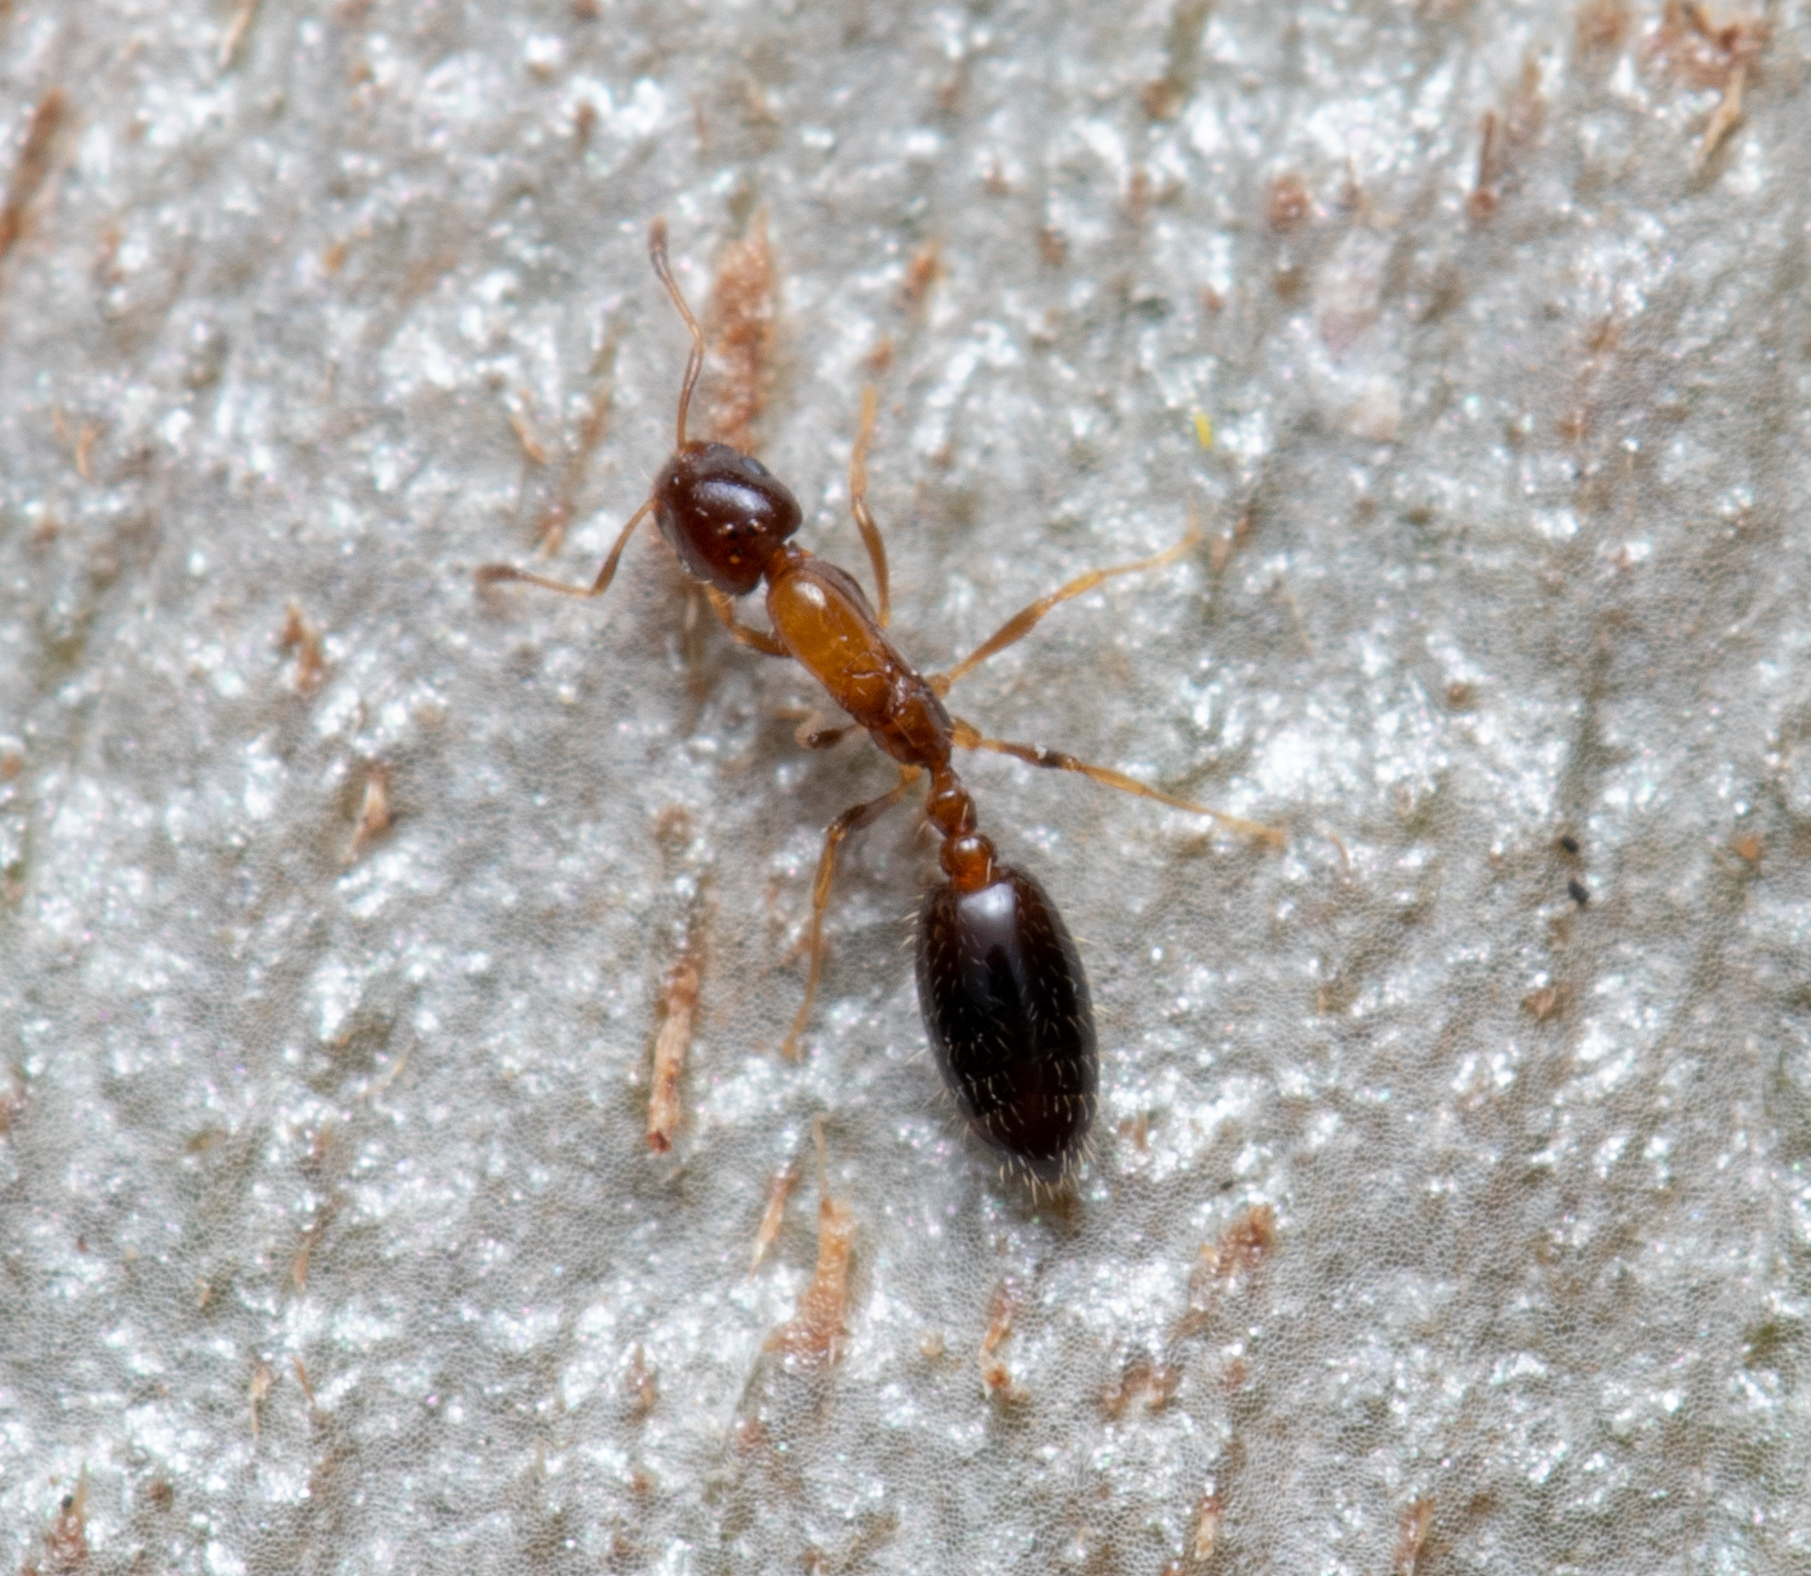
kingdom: Animalia
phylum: Arthropoda
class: Insecta
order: Hymenoptera
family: Formicidae
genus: Monomorium
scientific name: Monomorium floricola
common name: Bicolored trailing ant
